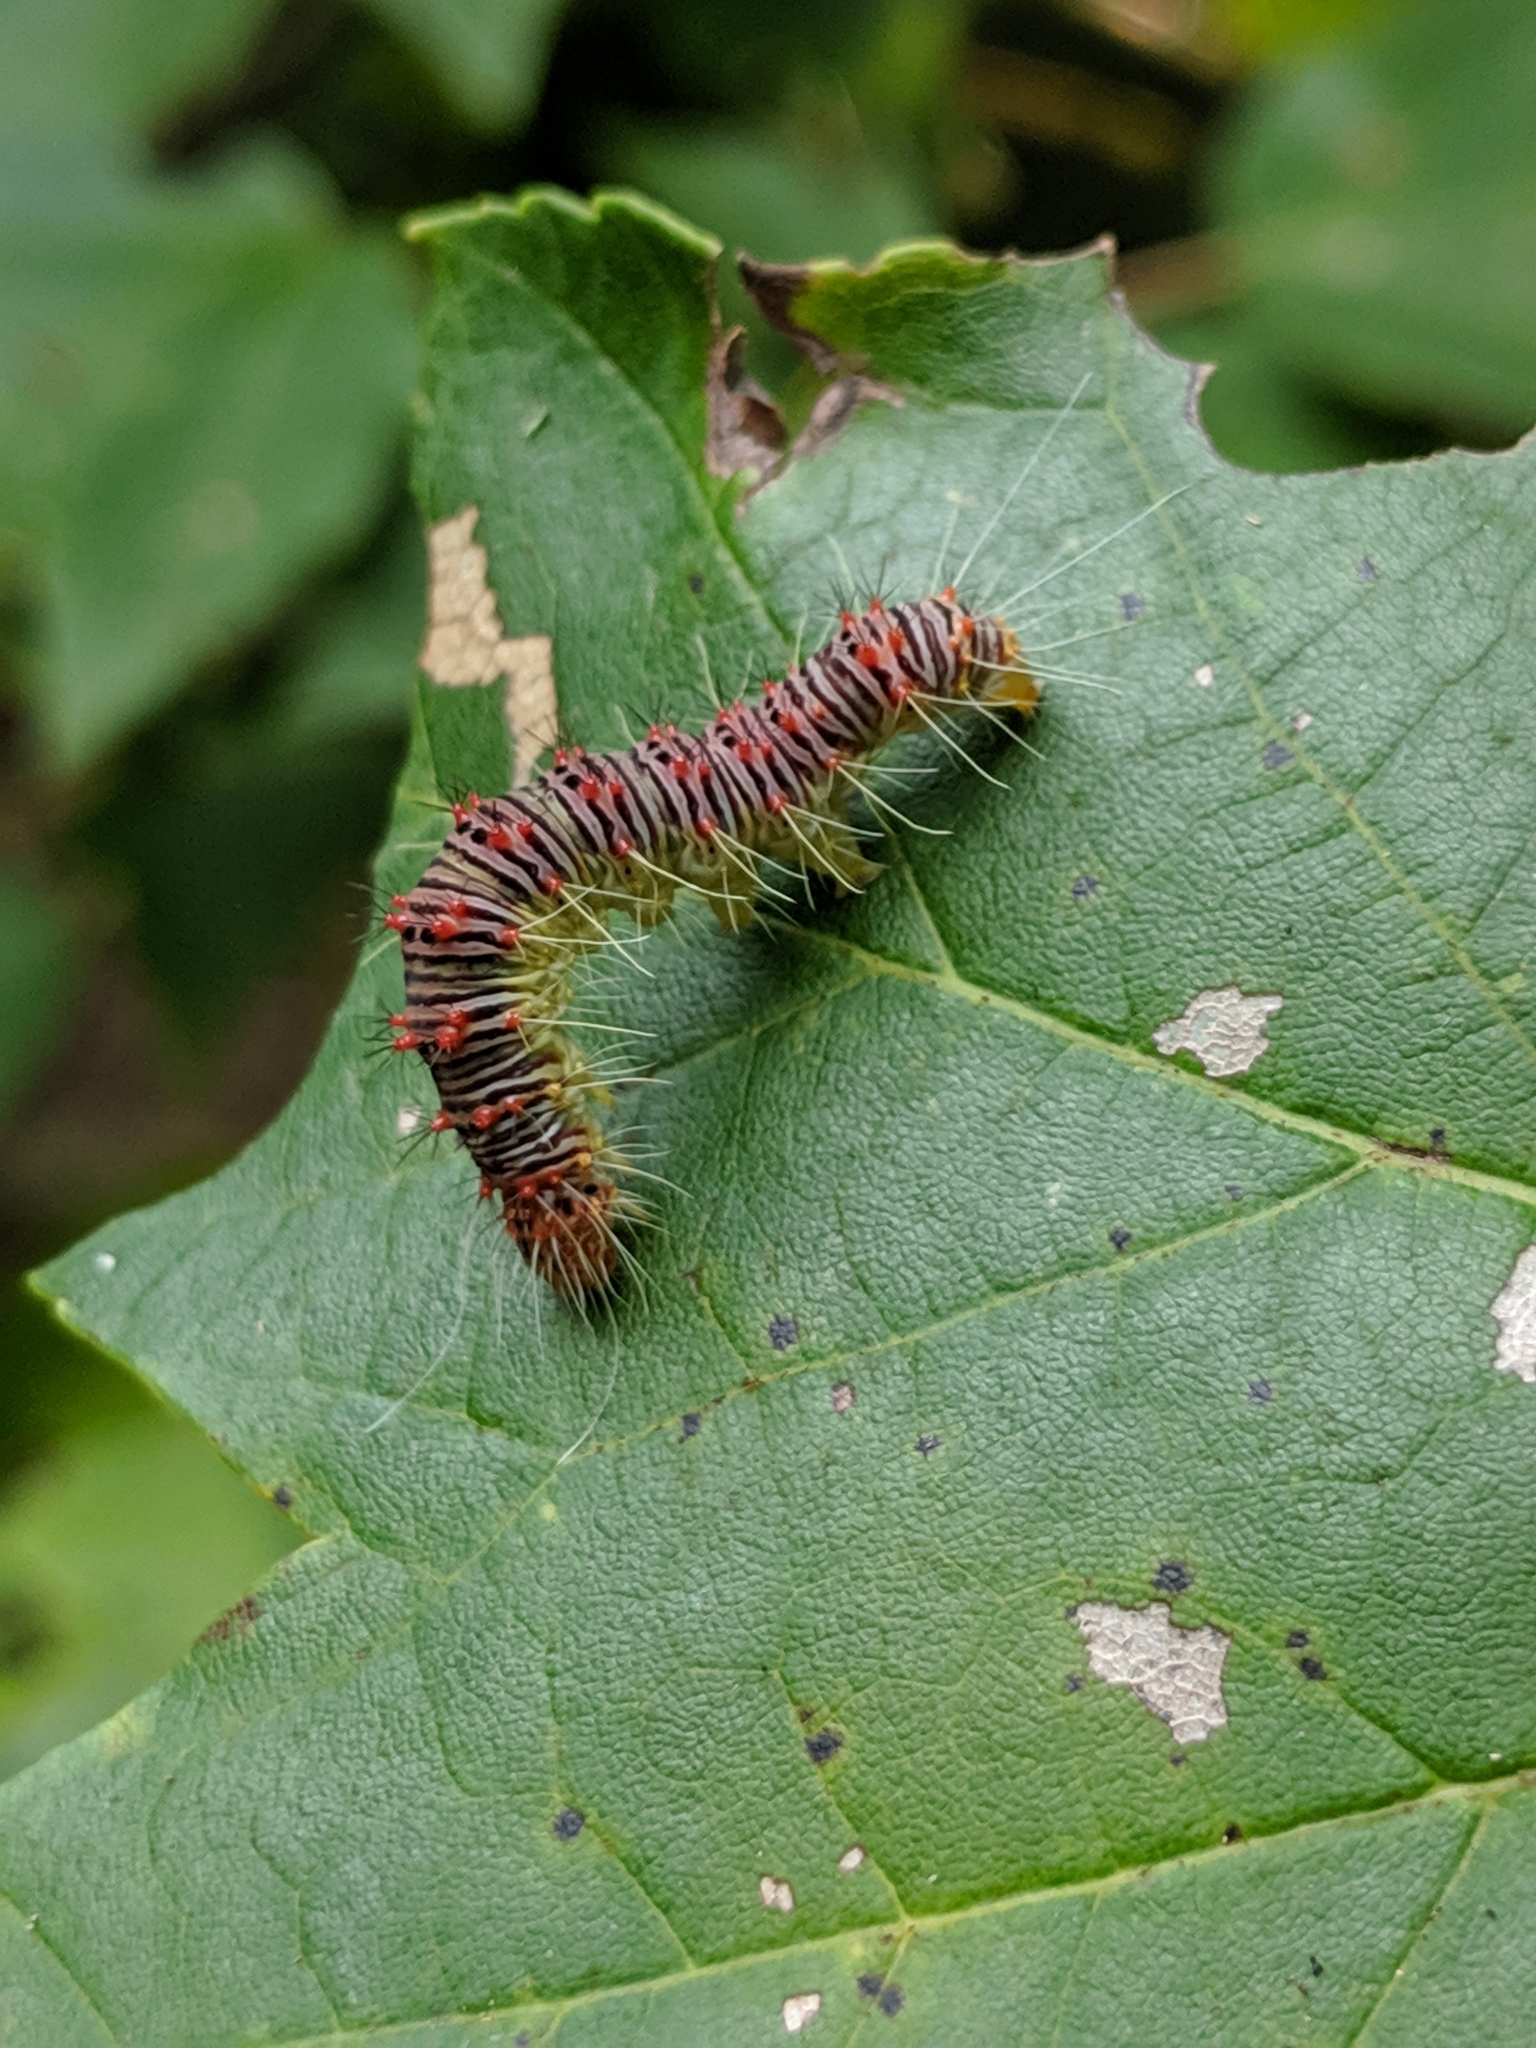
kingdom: Animalia
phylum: Arthropoda
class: Insecta
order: Lepidoptera
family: Noctuidae
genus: Acronicta
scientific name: Acronicta retardata
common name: Maple dagger
